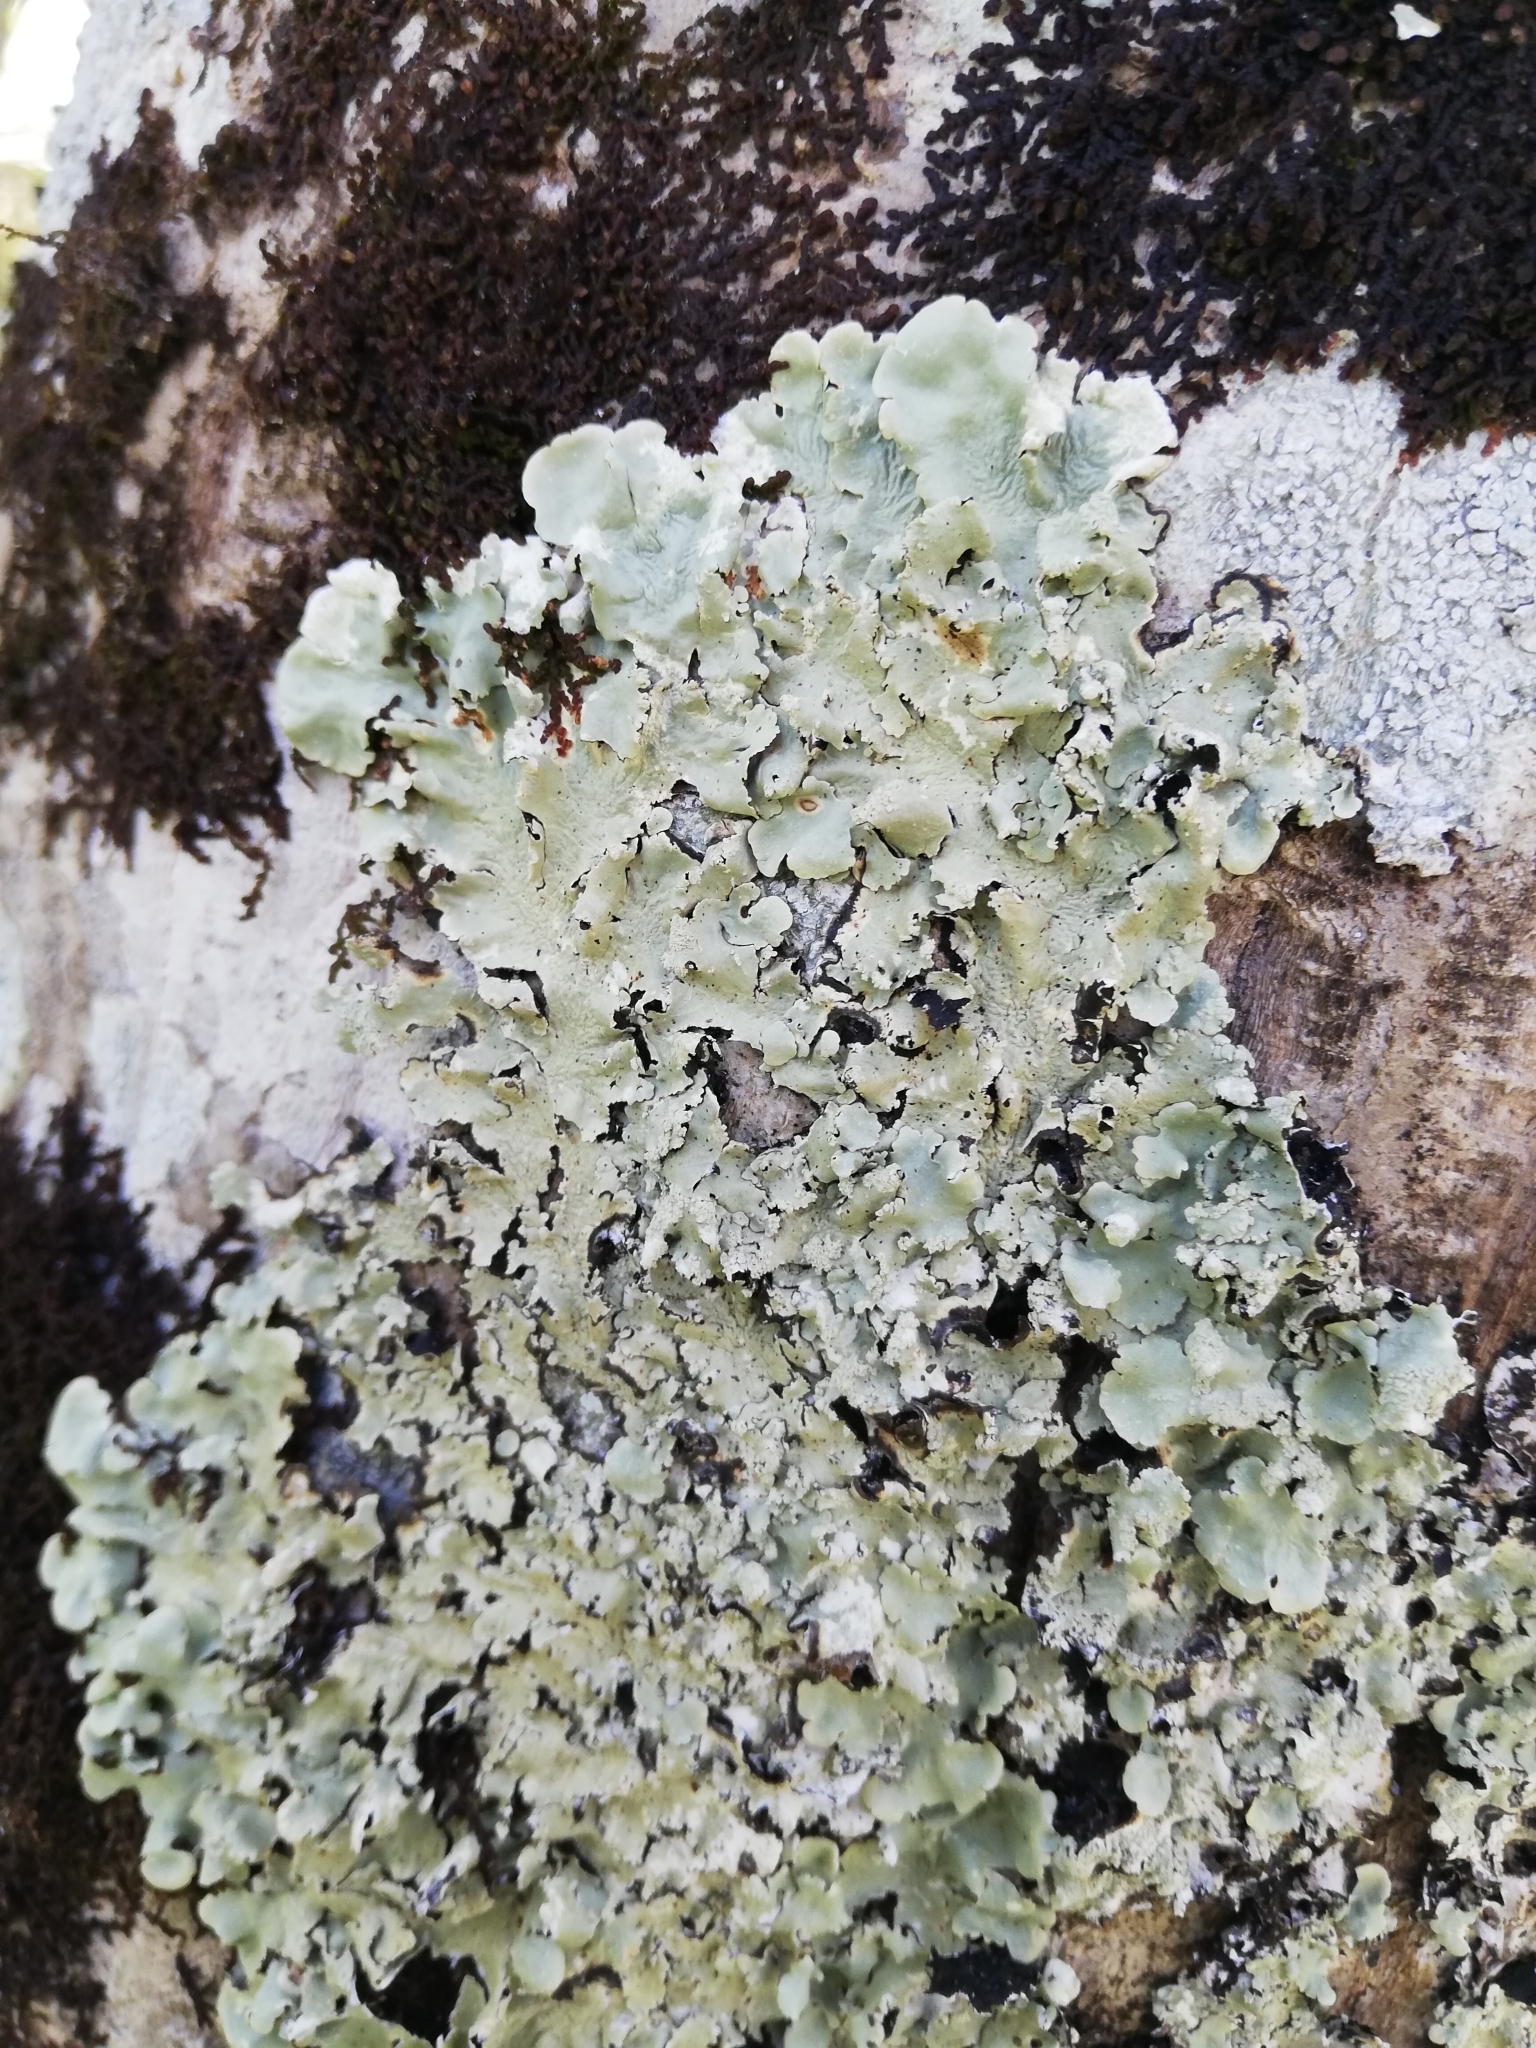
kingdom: Fungi
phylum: Ascomycota
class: Lecanoromycetes
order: Lecanorales
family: Parmeliaceae
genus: Flavoparmelia
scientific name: Flavoparmelia caperata
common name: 40-mile per hour lichen
